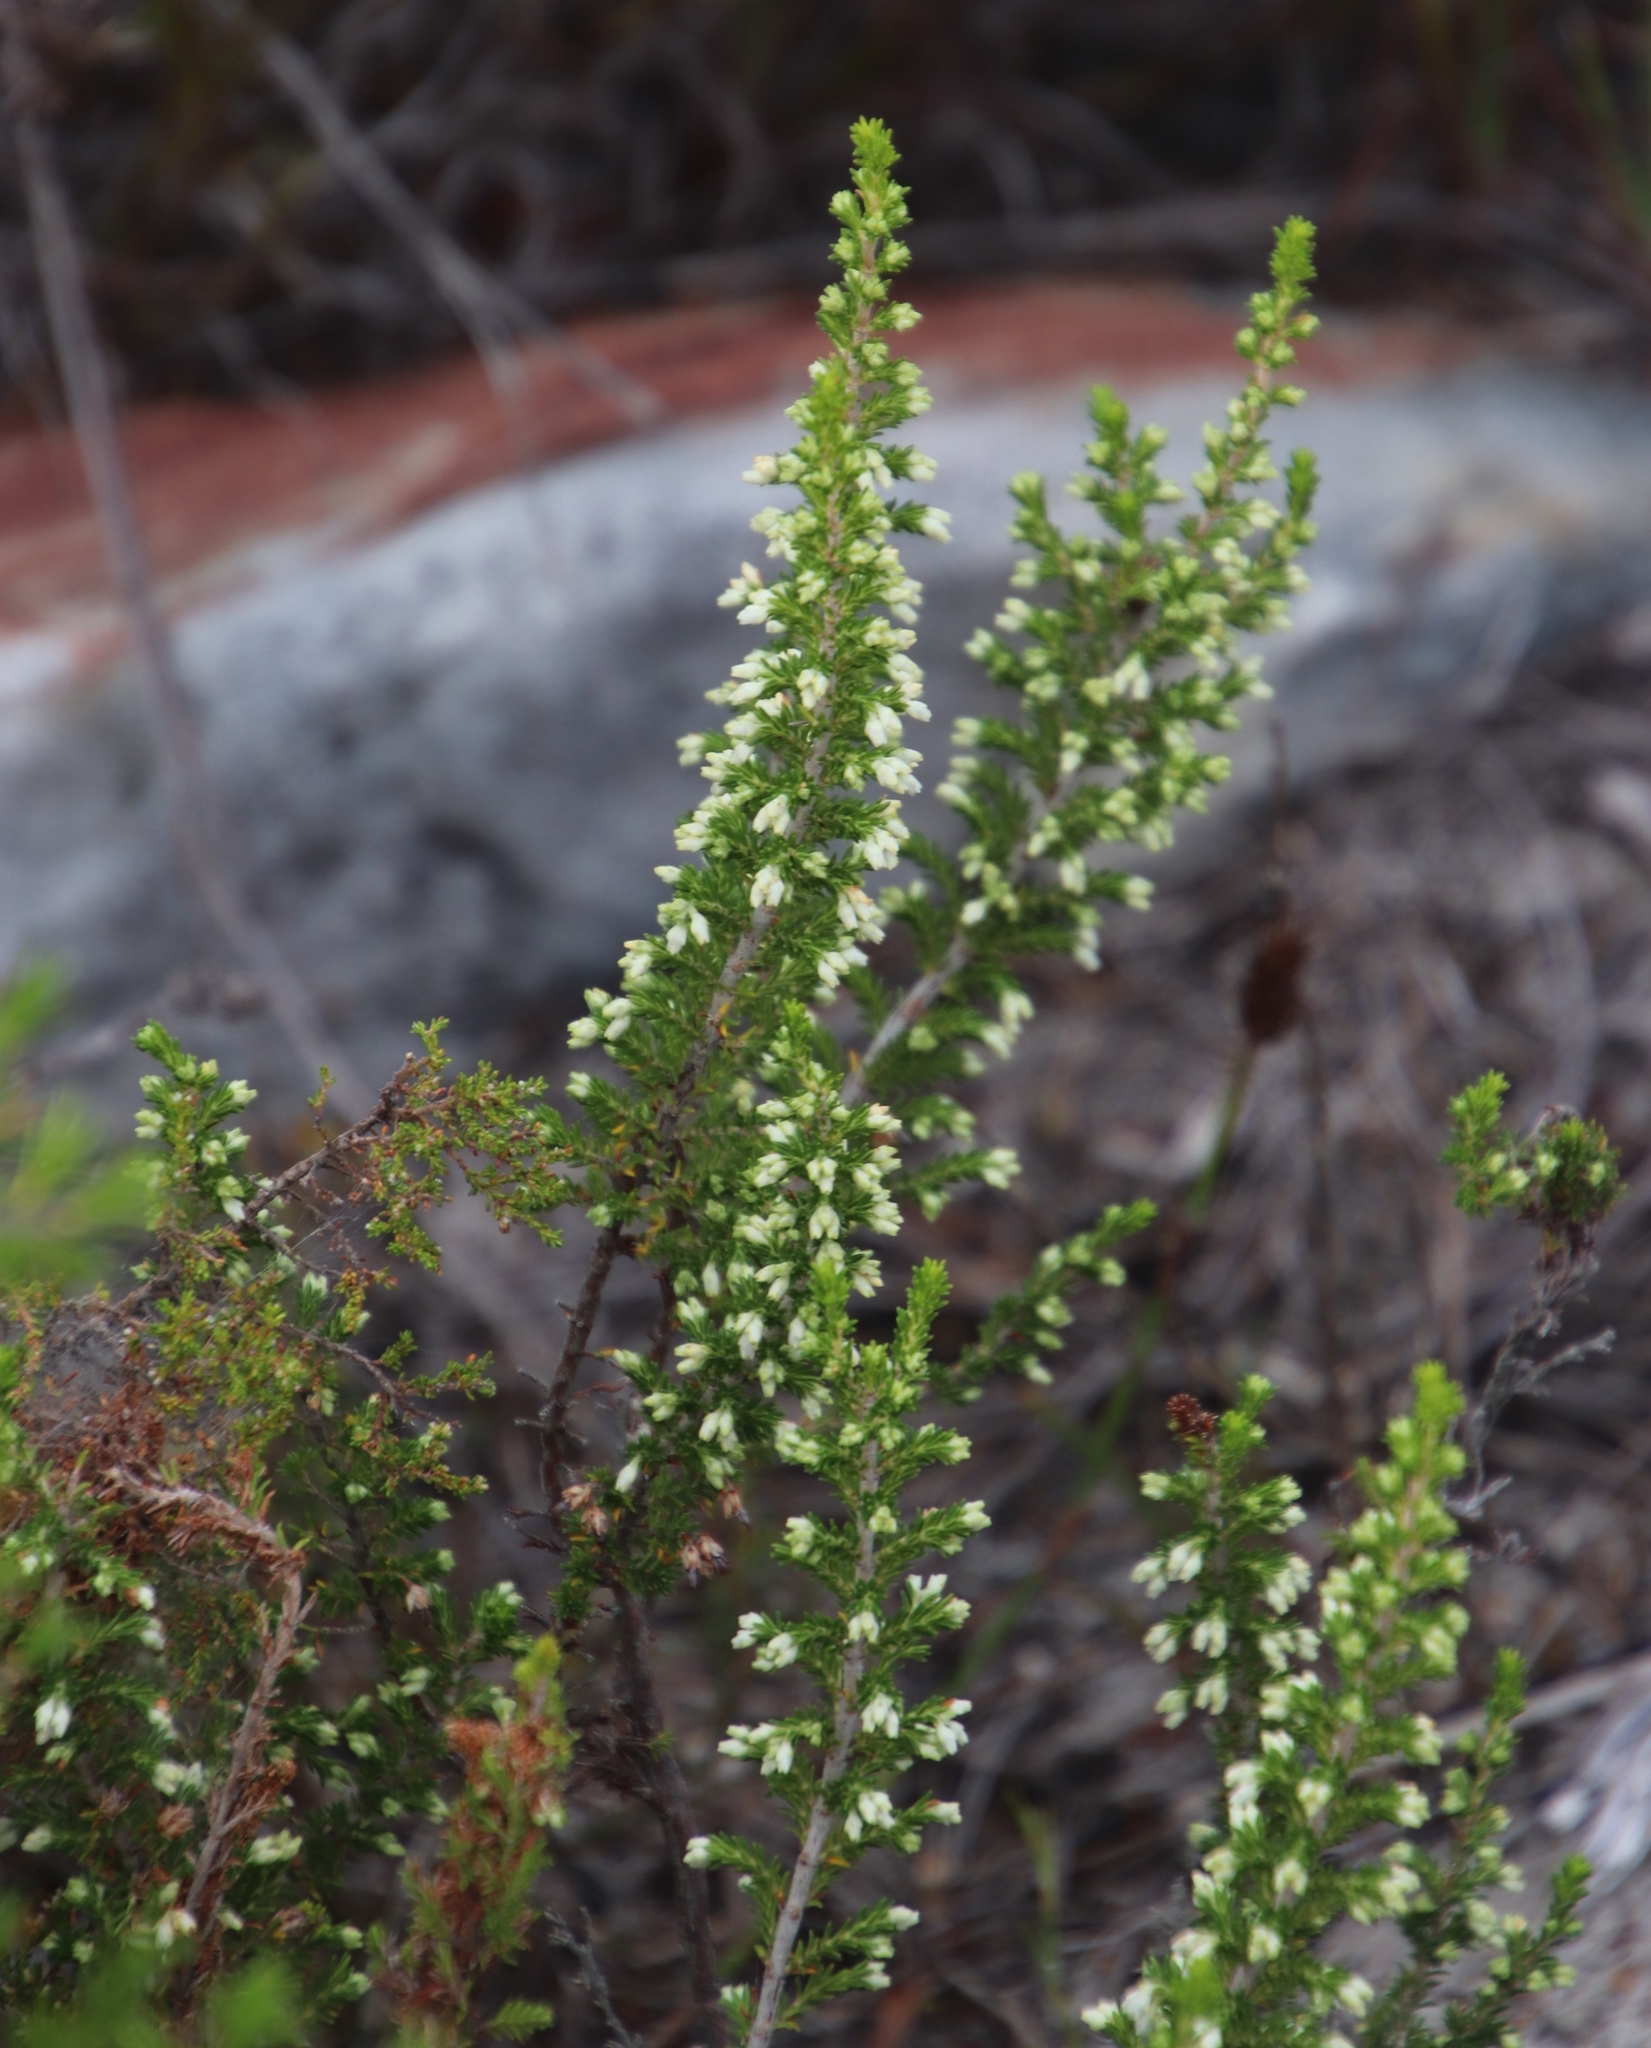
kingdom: Plantae
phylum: Tracheophyta
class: Magnoliopsida
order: Ericales
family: Ericaceae
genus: Erica
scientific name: Erica imbricata
